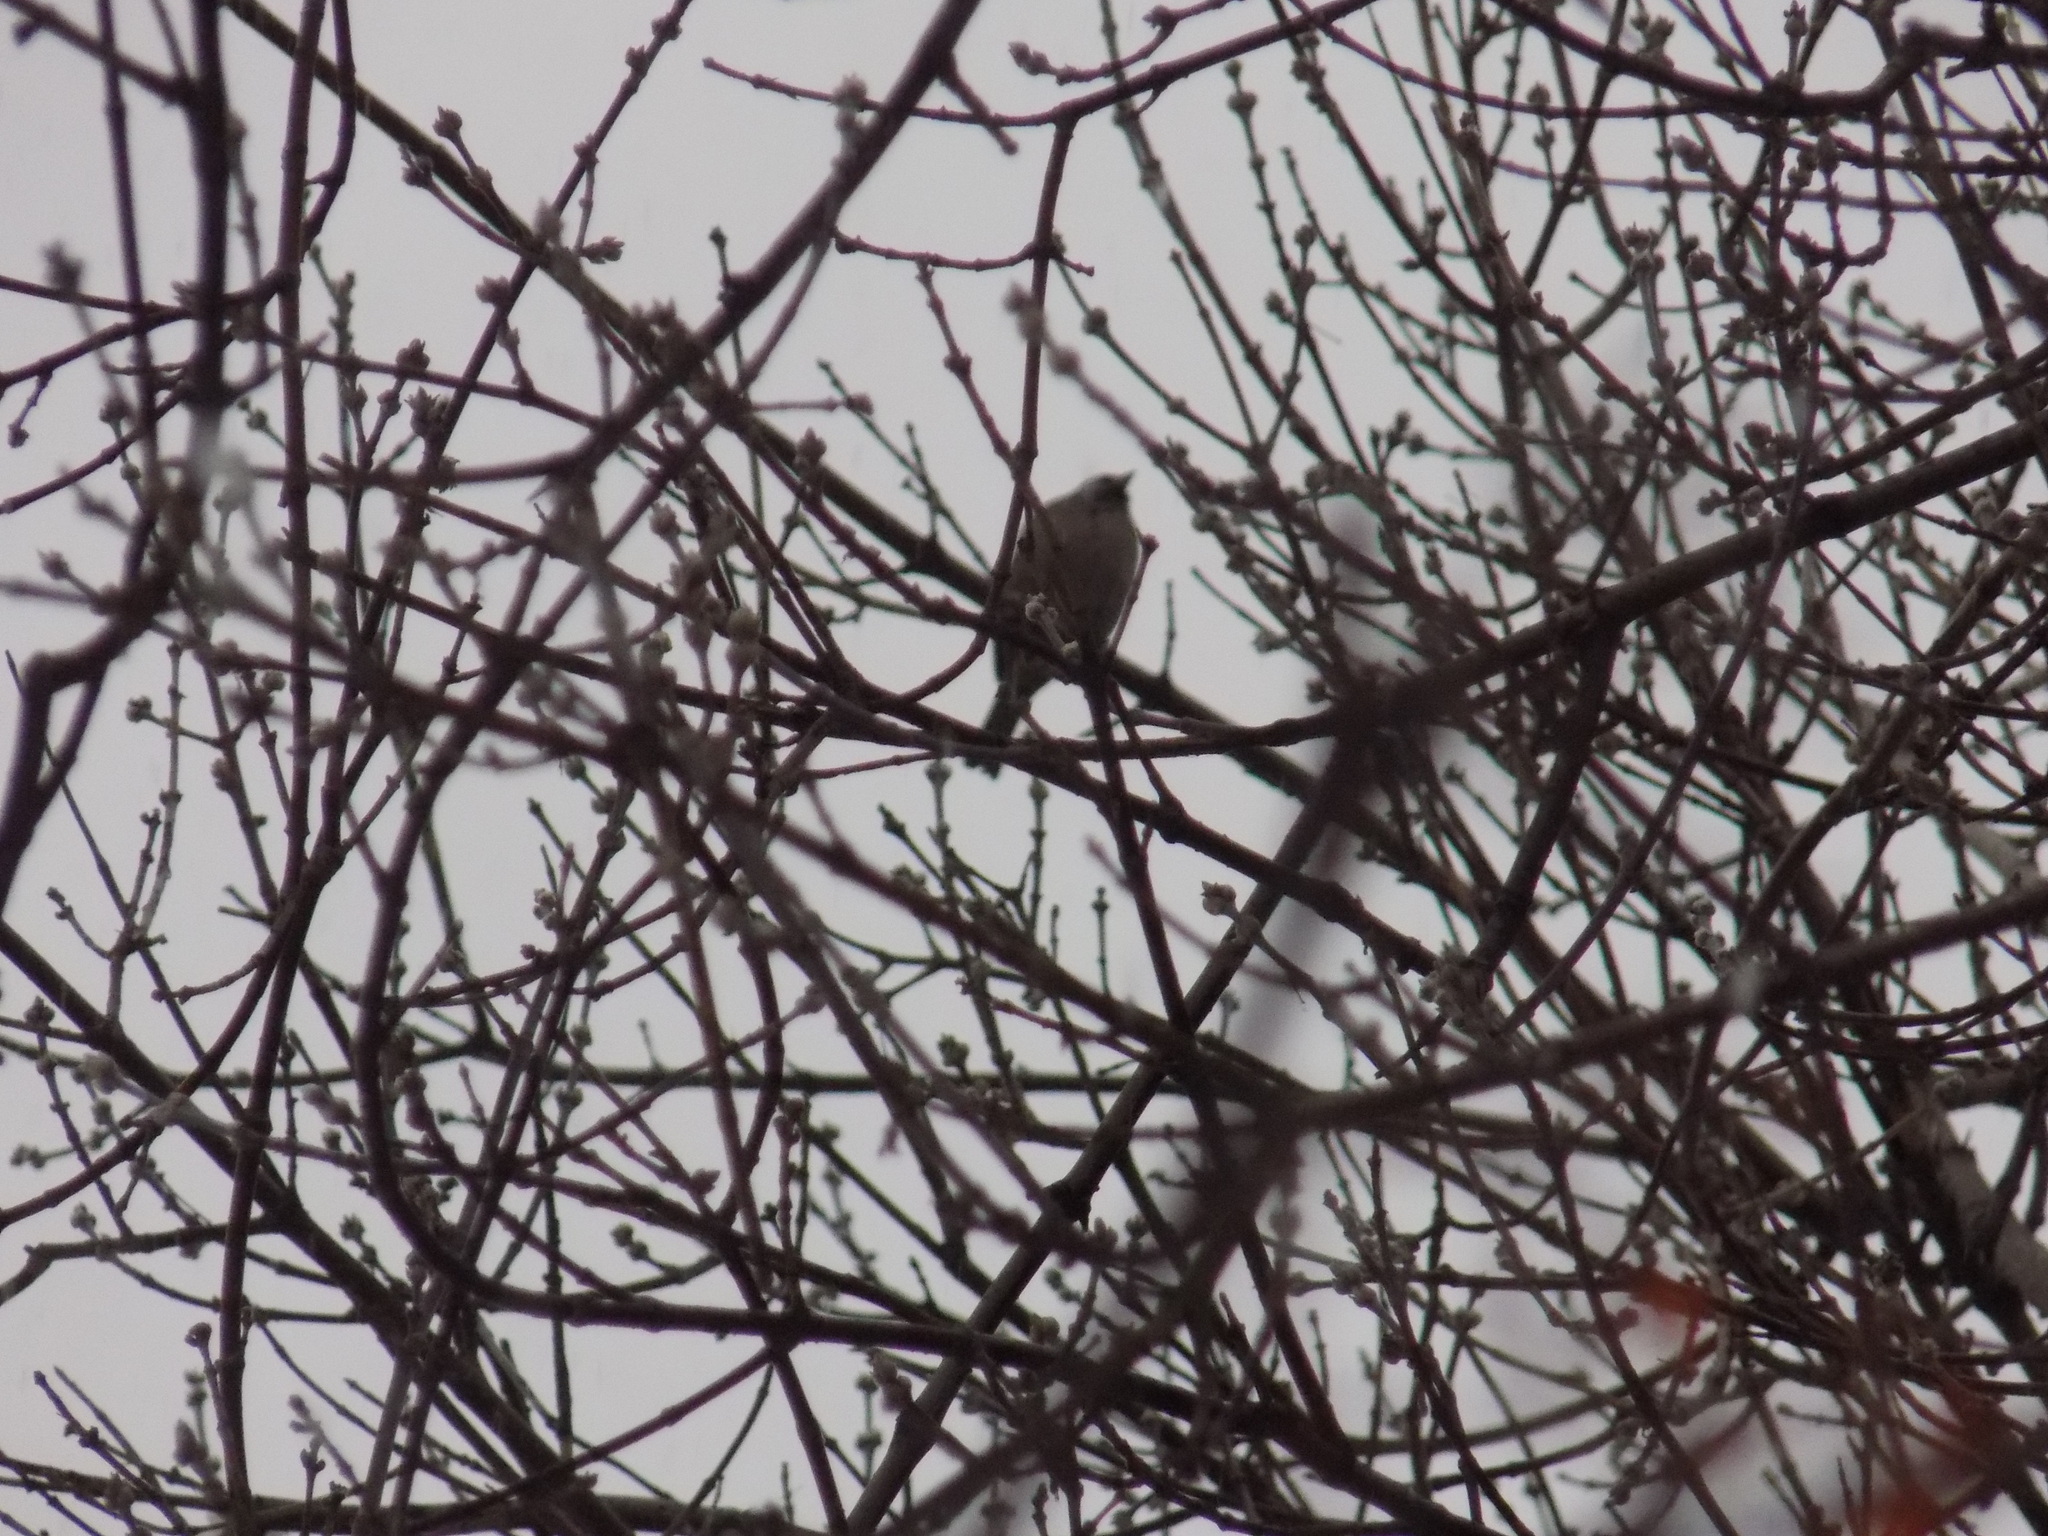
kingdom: Animalia
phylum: Chordata
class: Aves
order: Passeriformes
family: Passeridae
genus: Passer
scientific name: Passer domesticus
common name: House sparrow
